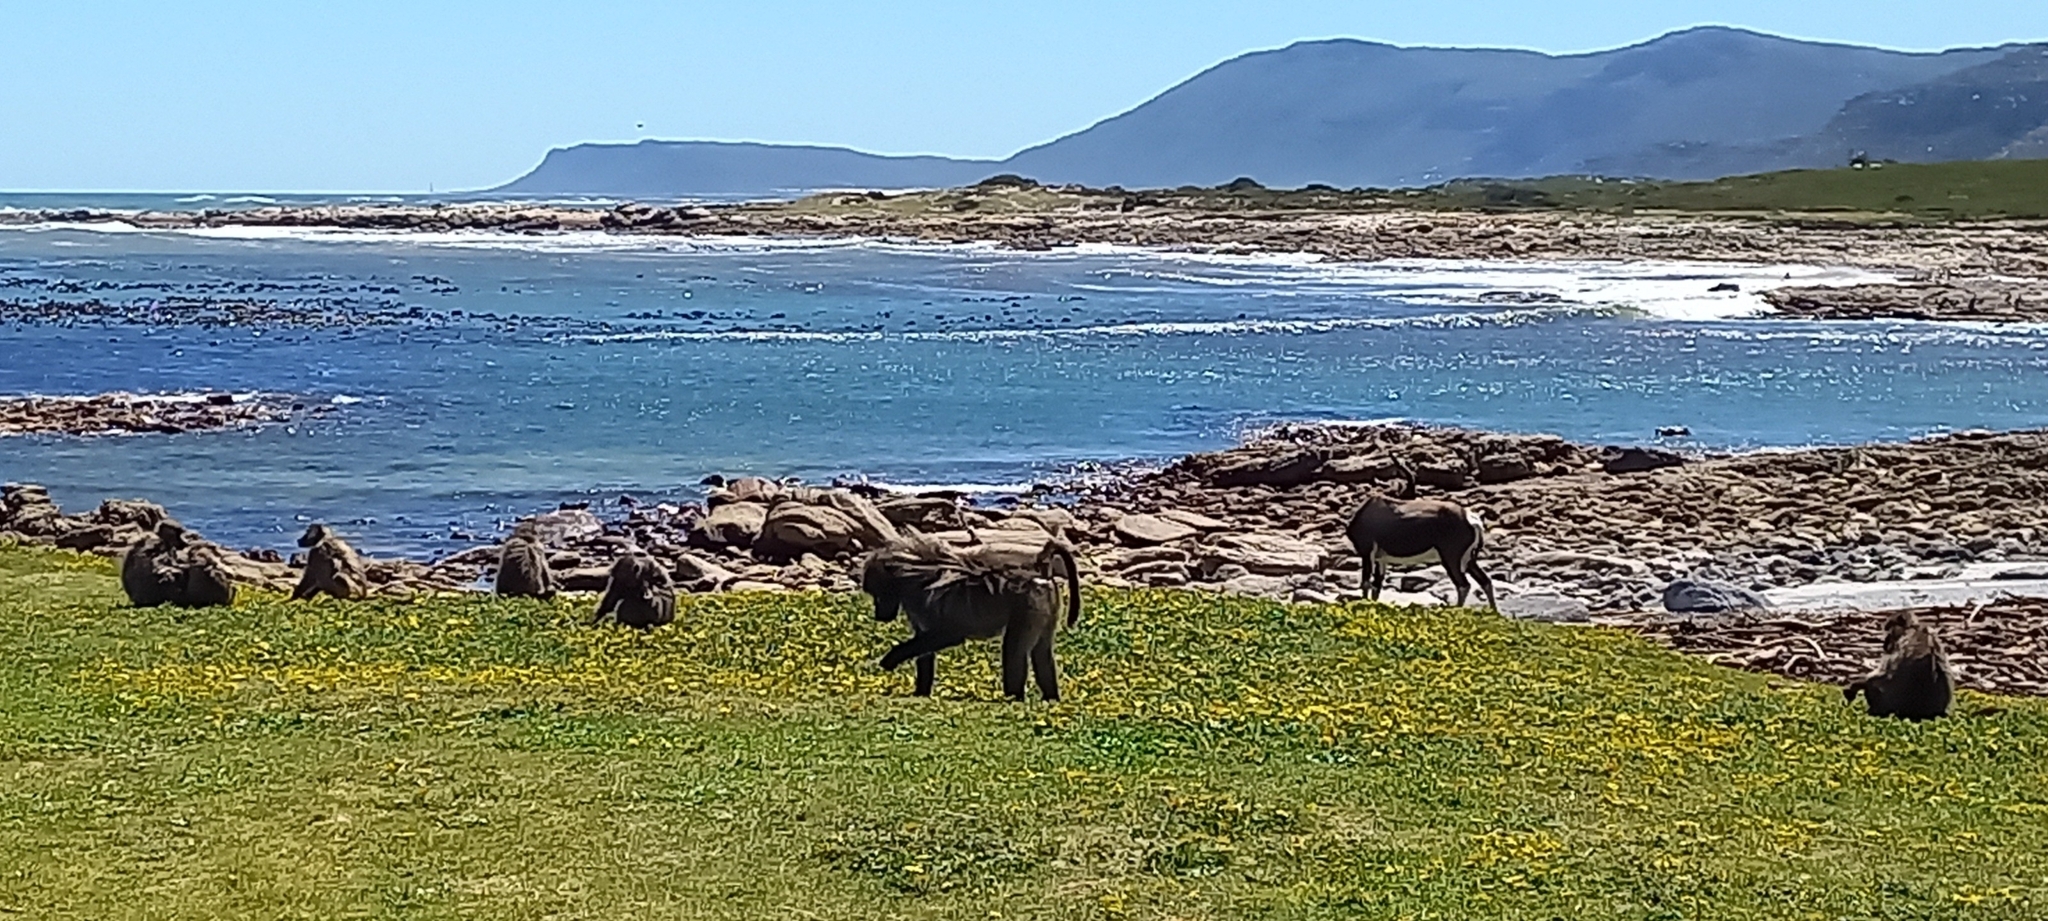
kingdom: Animalia
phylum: Chordata
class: Mammalia
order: Primates
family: Cercopithecidae
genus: Papio
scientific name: Papio ursinus
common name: Chacma baboon
